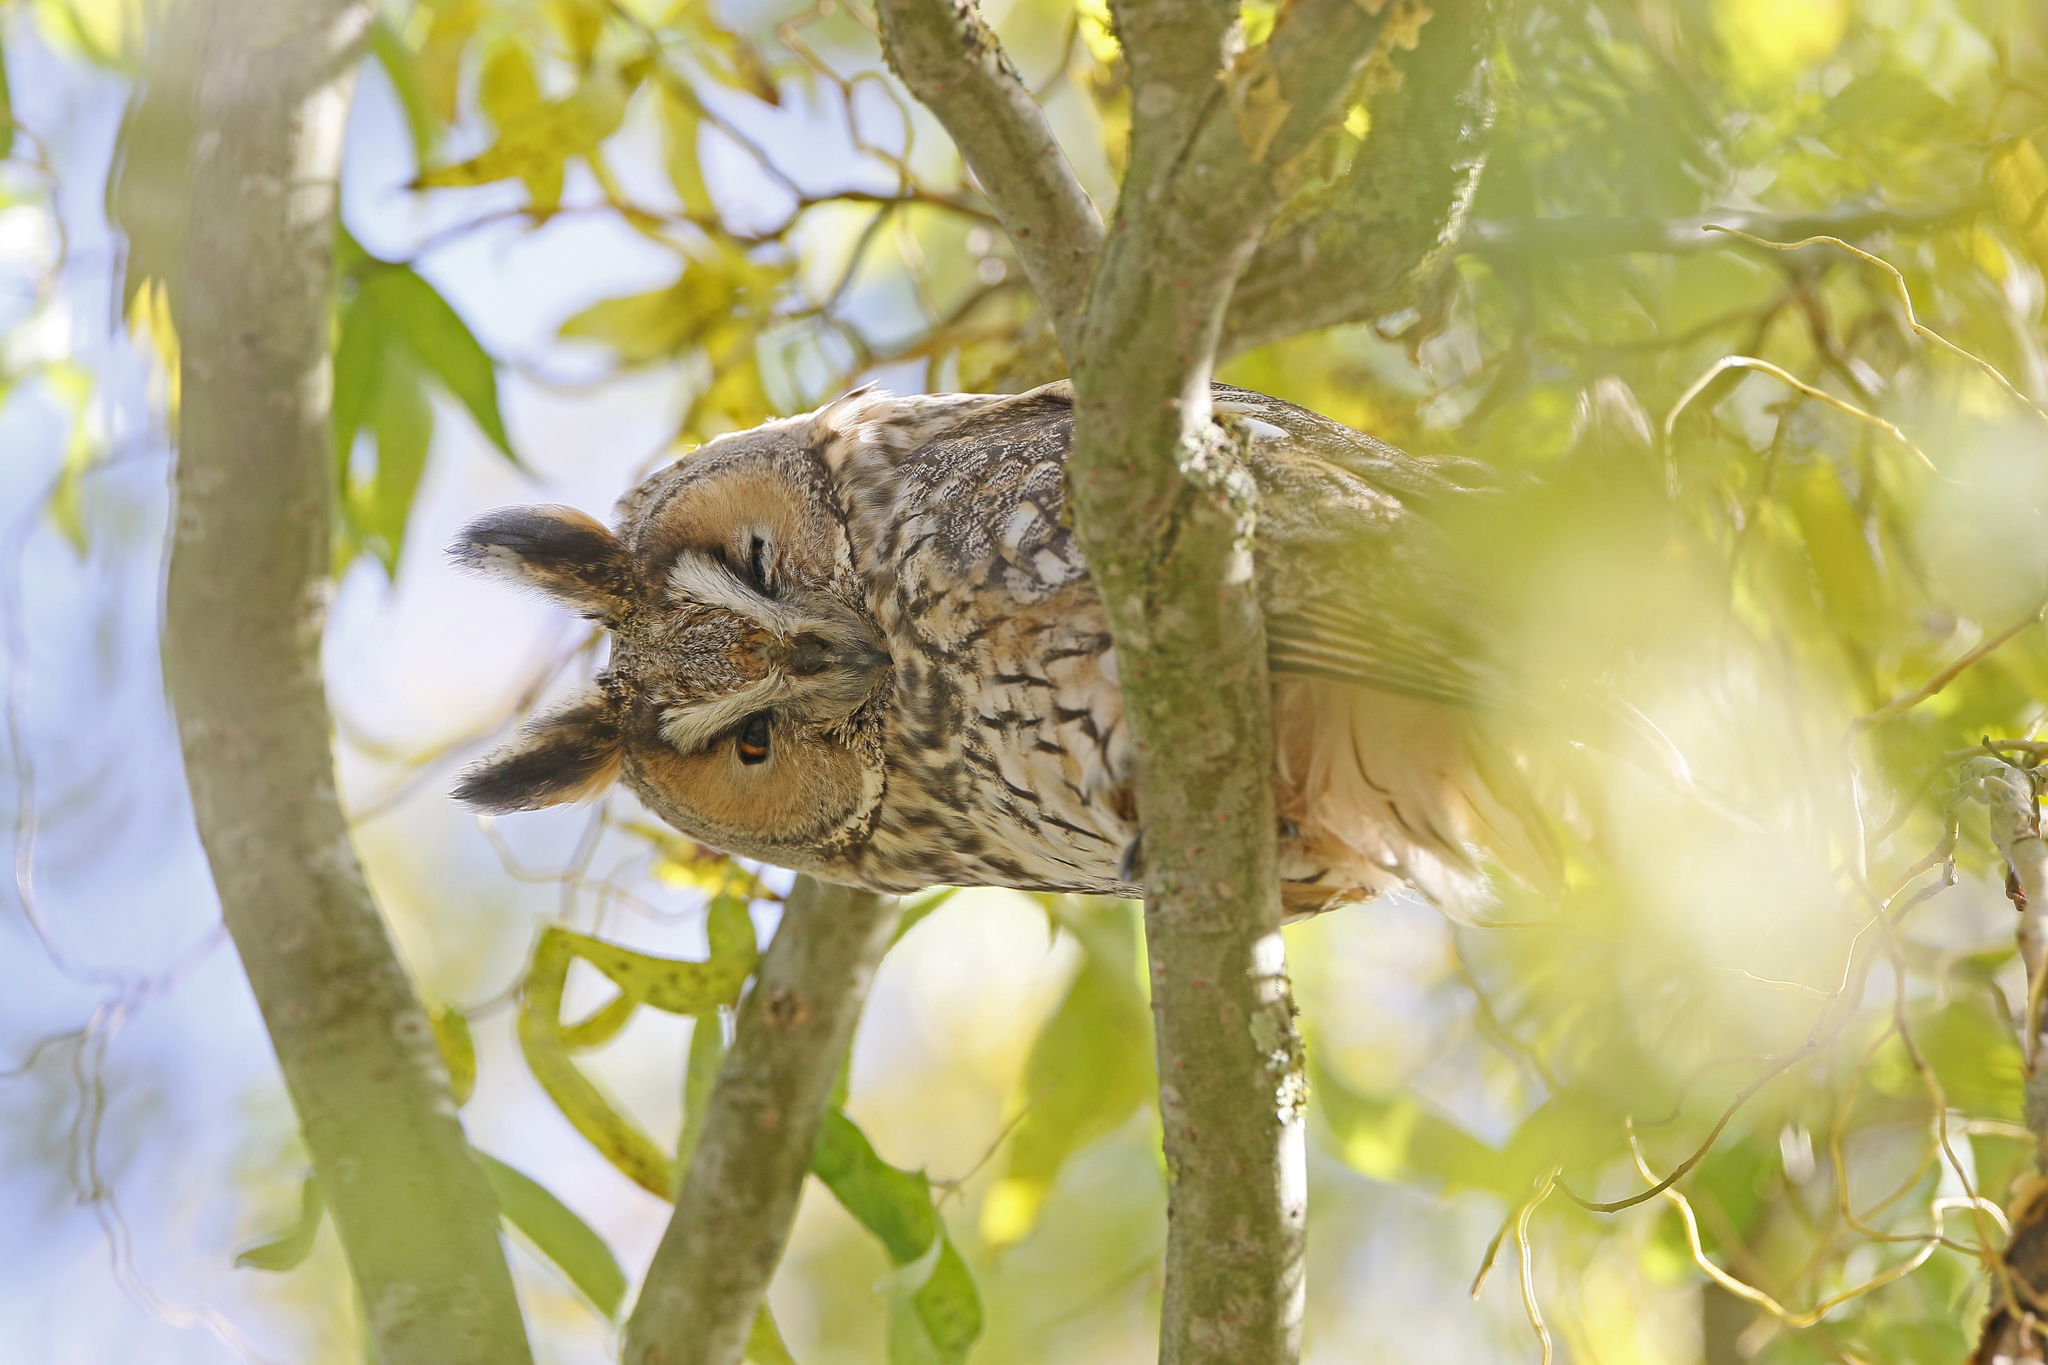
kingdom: Animalia
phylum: Chordata
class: Aves
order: Strigiformes
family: Strigidae
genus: Asio
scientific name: Asio otus
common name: Long-eared owl
